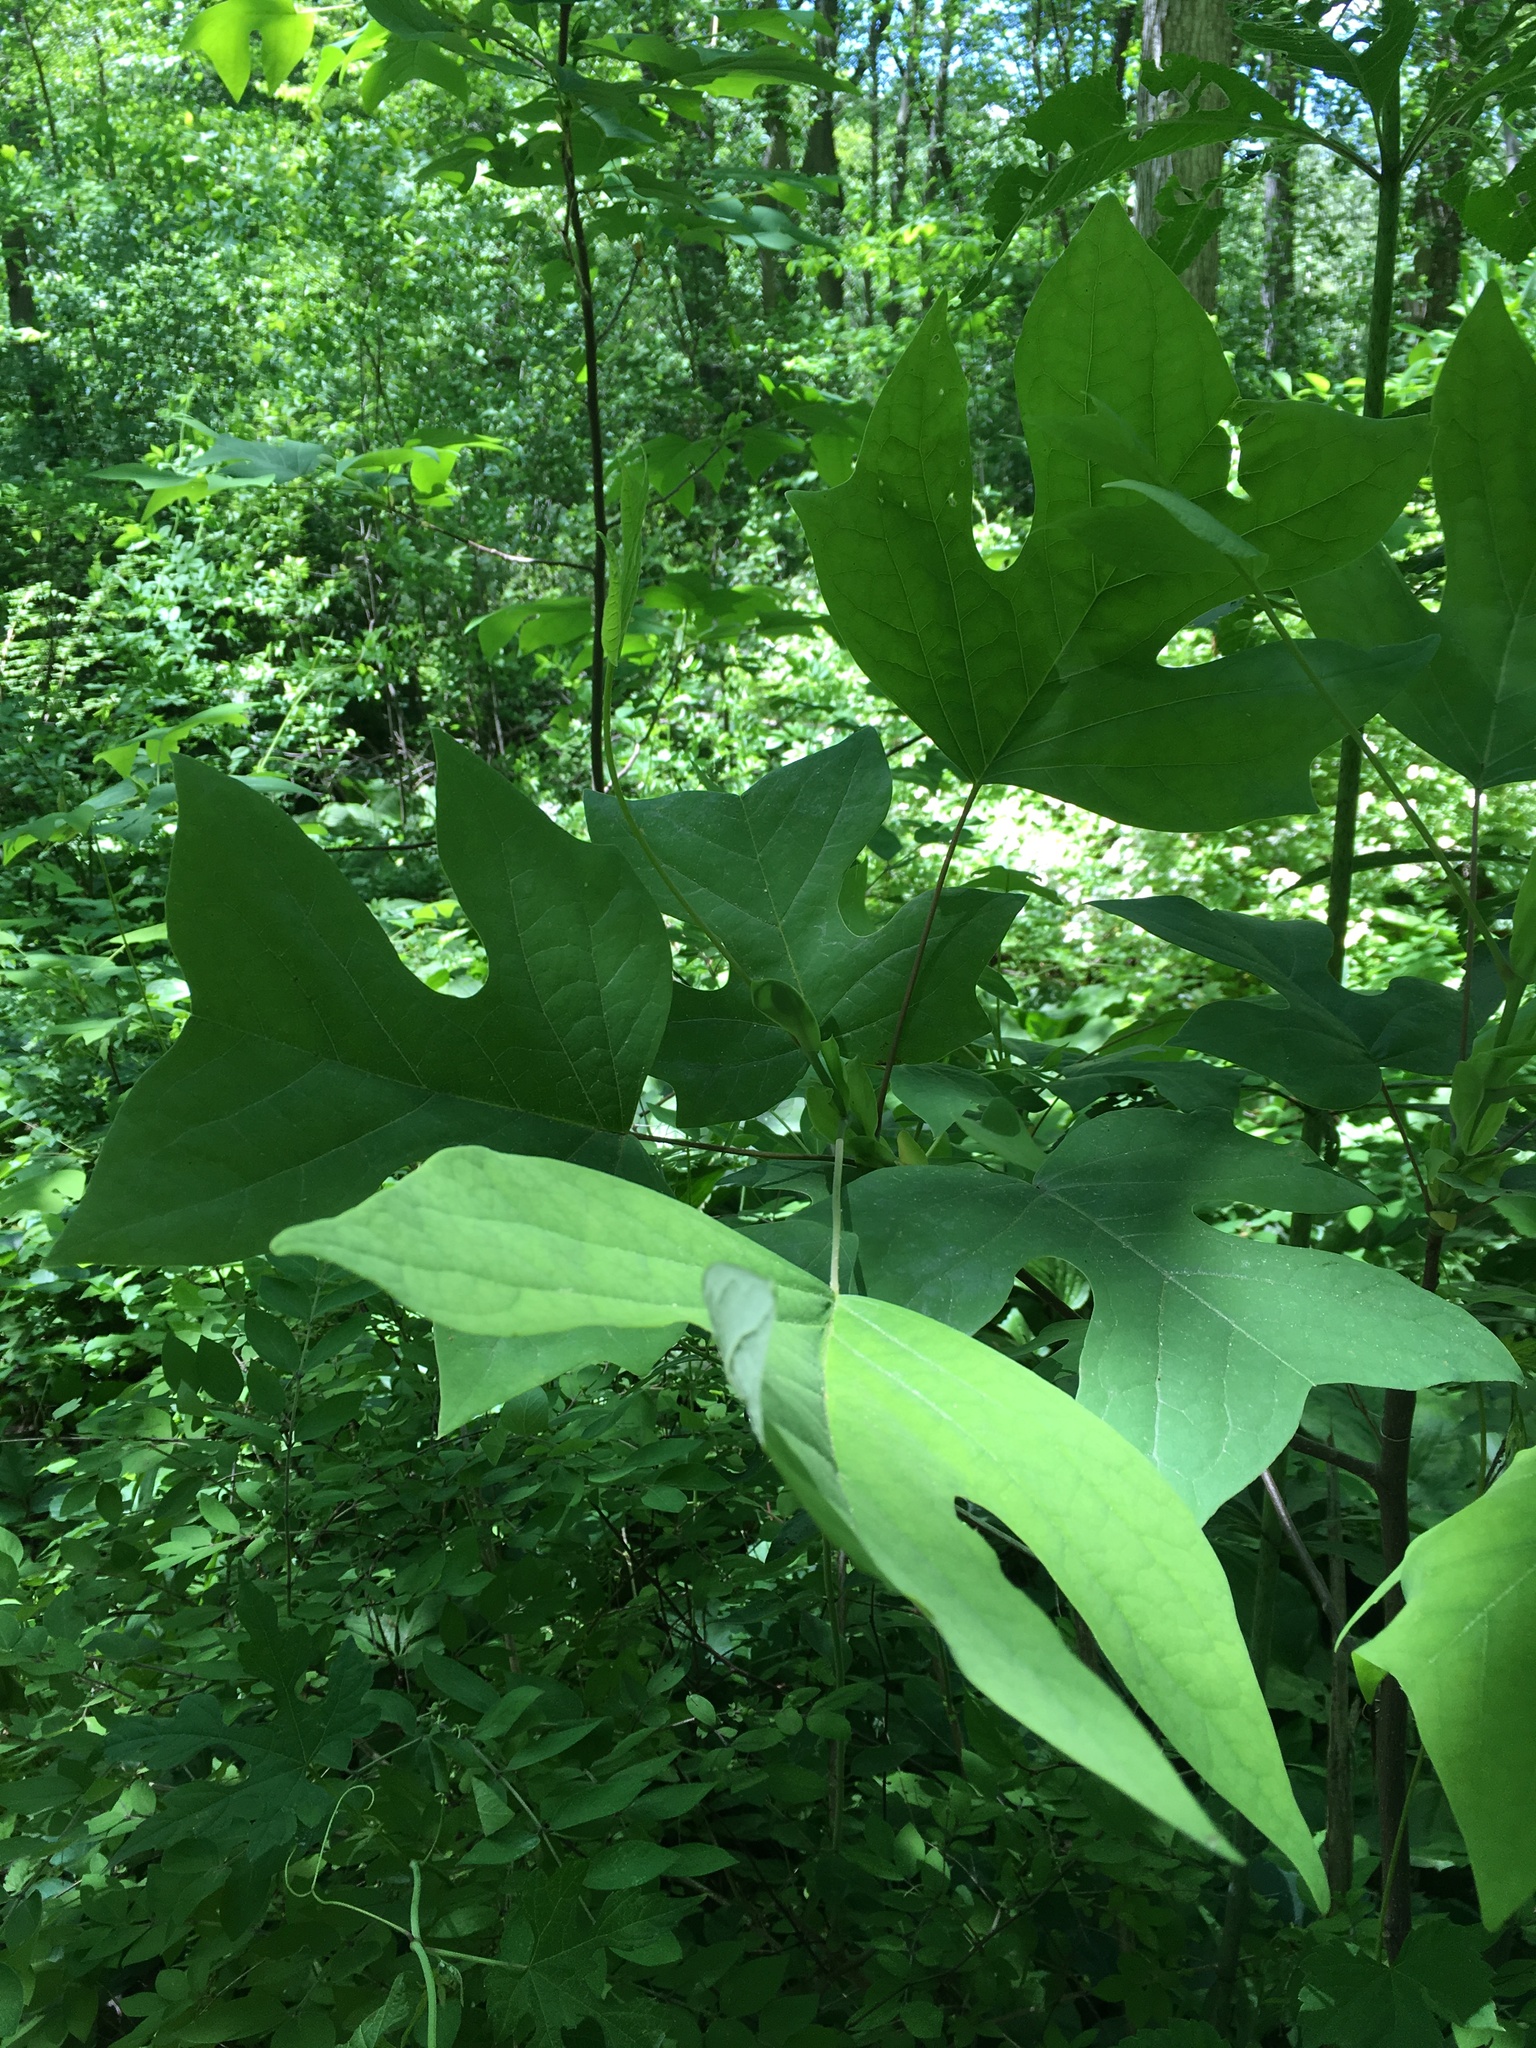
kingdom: Plantae
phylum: Tracheophyta
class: Magnoliopsida
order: Magnoliales
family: Magnoliaceae
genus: Liriodendron
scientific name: Liriodendron tulipifera
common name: Tulip tree
